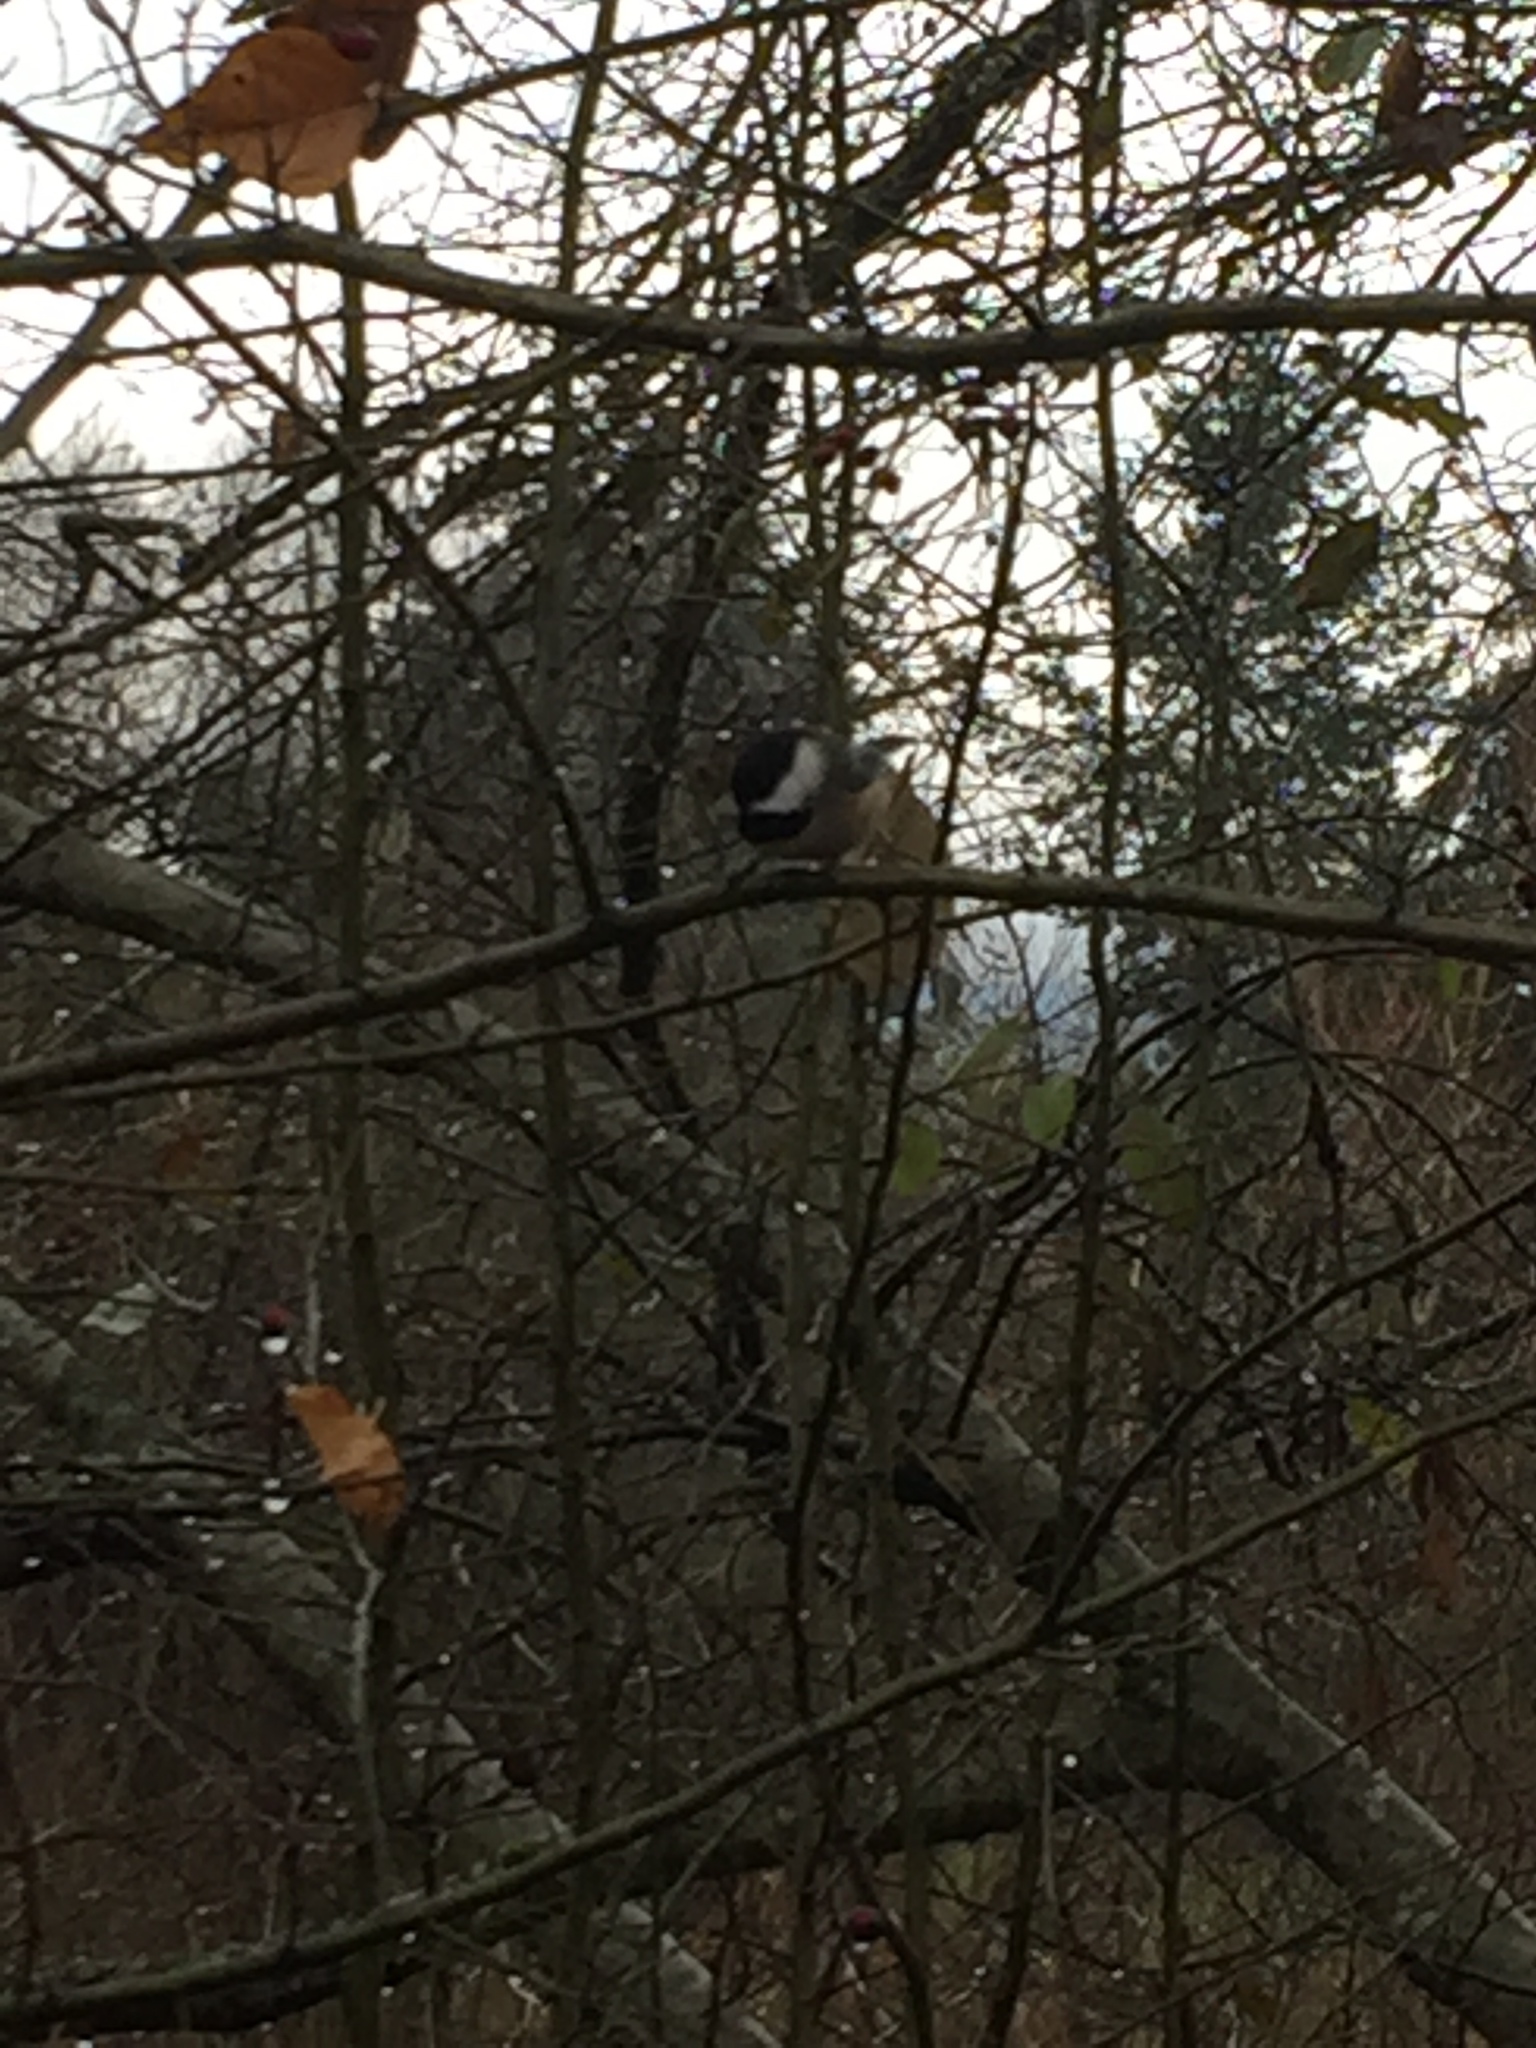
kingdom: Animalia
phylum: Chordata
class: Aves
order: Passeriformes
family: Paridae
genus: Poecile
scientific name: Poecile atricapillus
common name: Black-capped chickadee
